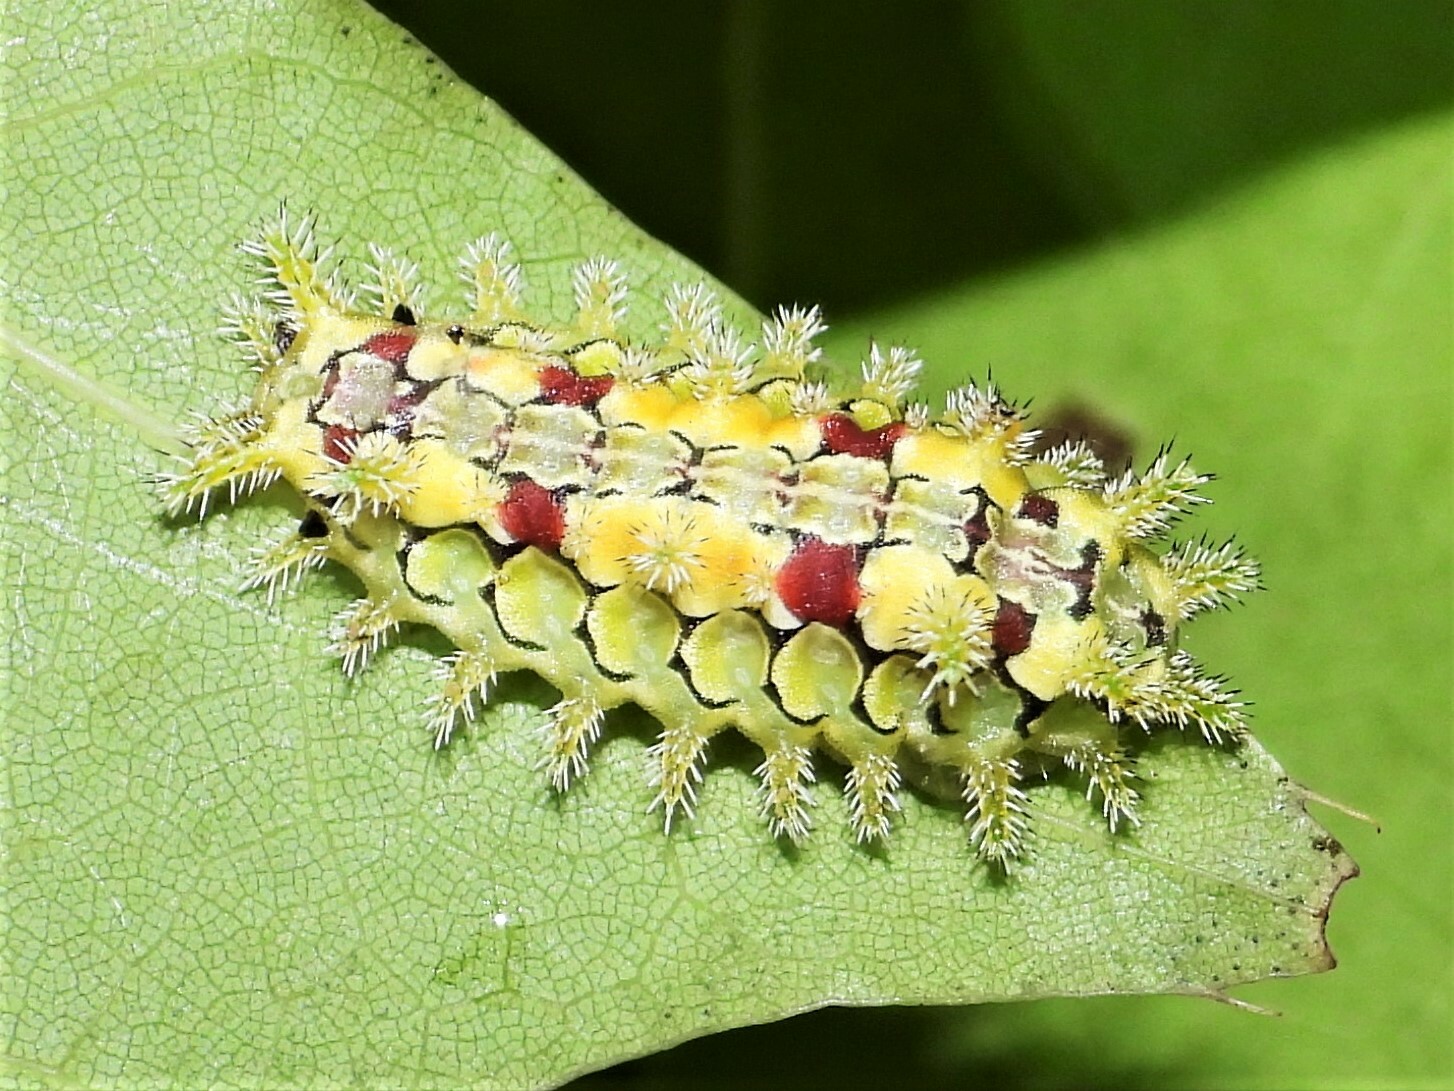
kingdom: Animalia
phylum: Arthropoda
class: Insecta
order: Lepidoptera
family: Limacodidae
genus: Euclea
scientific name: Euclea delphinii
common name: Spiny oak-slug moth
